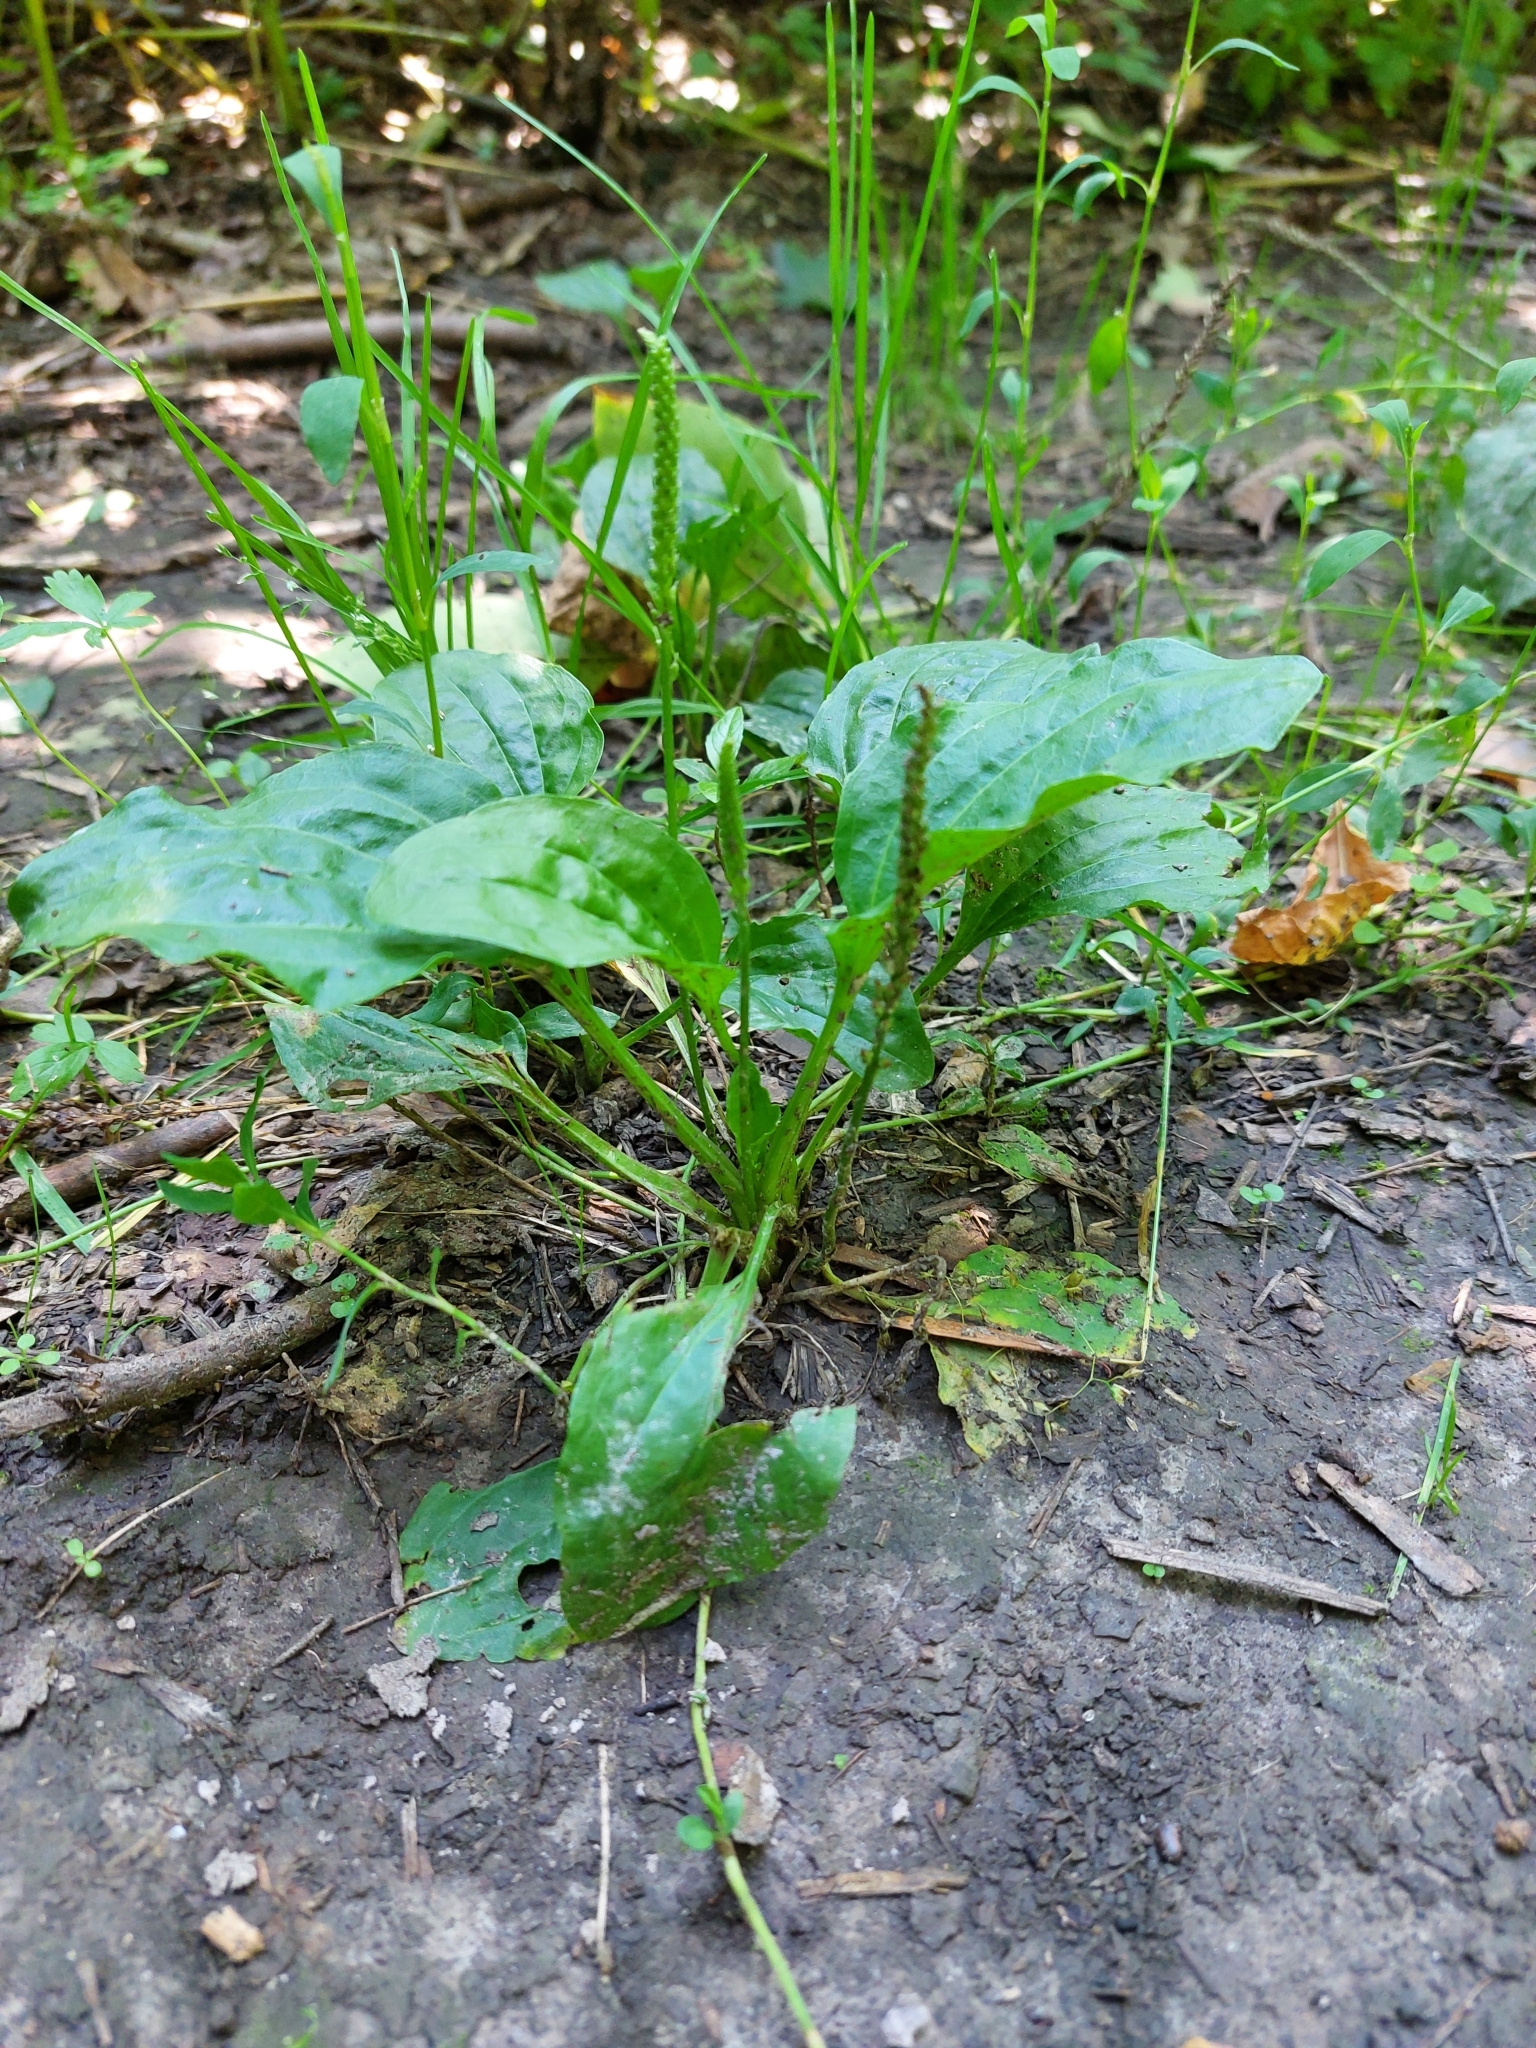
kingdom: Plantae
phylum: Tracheophyta
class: Magnoliopsida
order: Lamiales
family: Plantaginaceae
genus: Plantago
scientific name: Plantago major
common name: Common plantain
